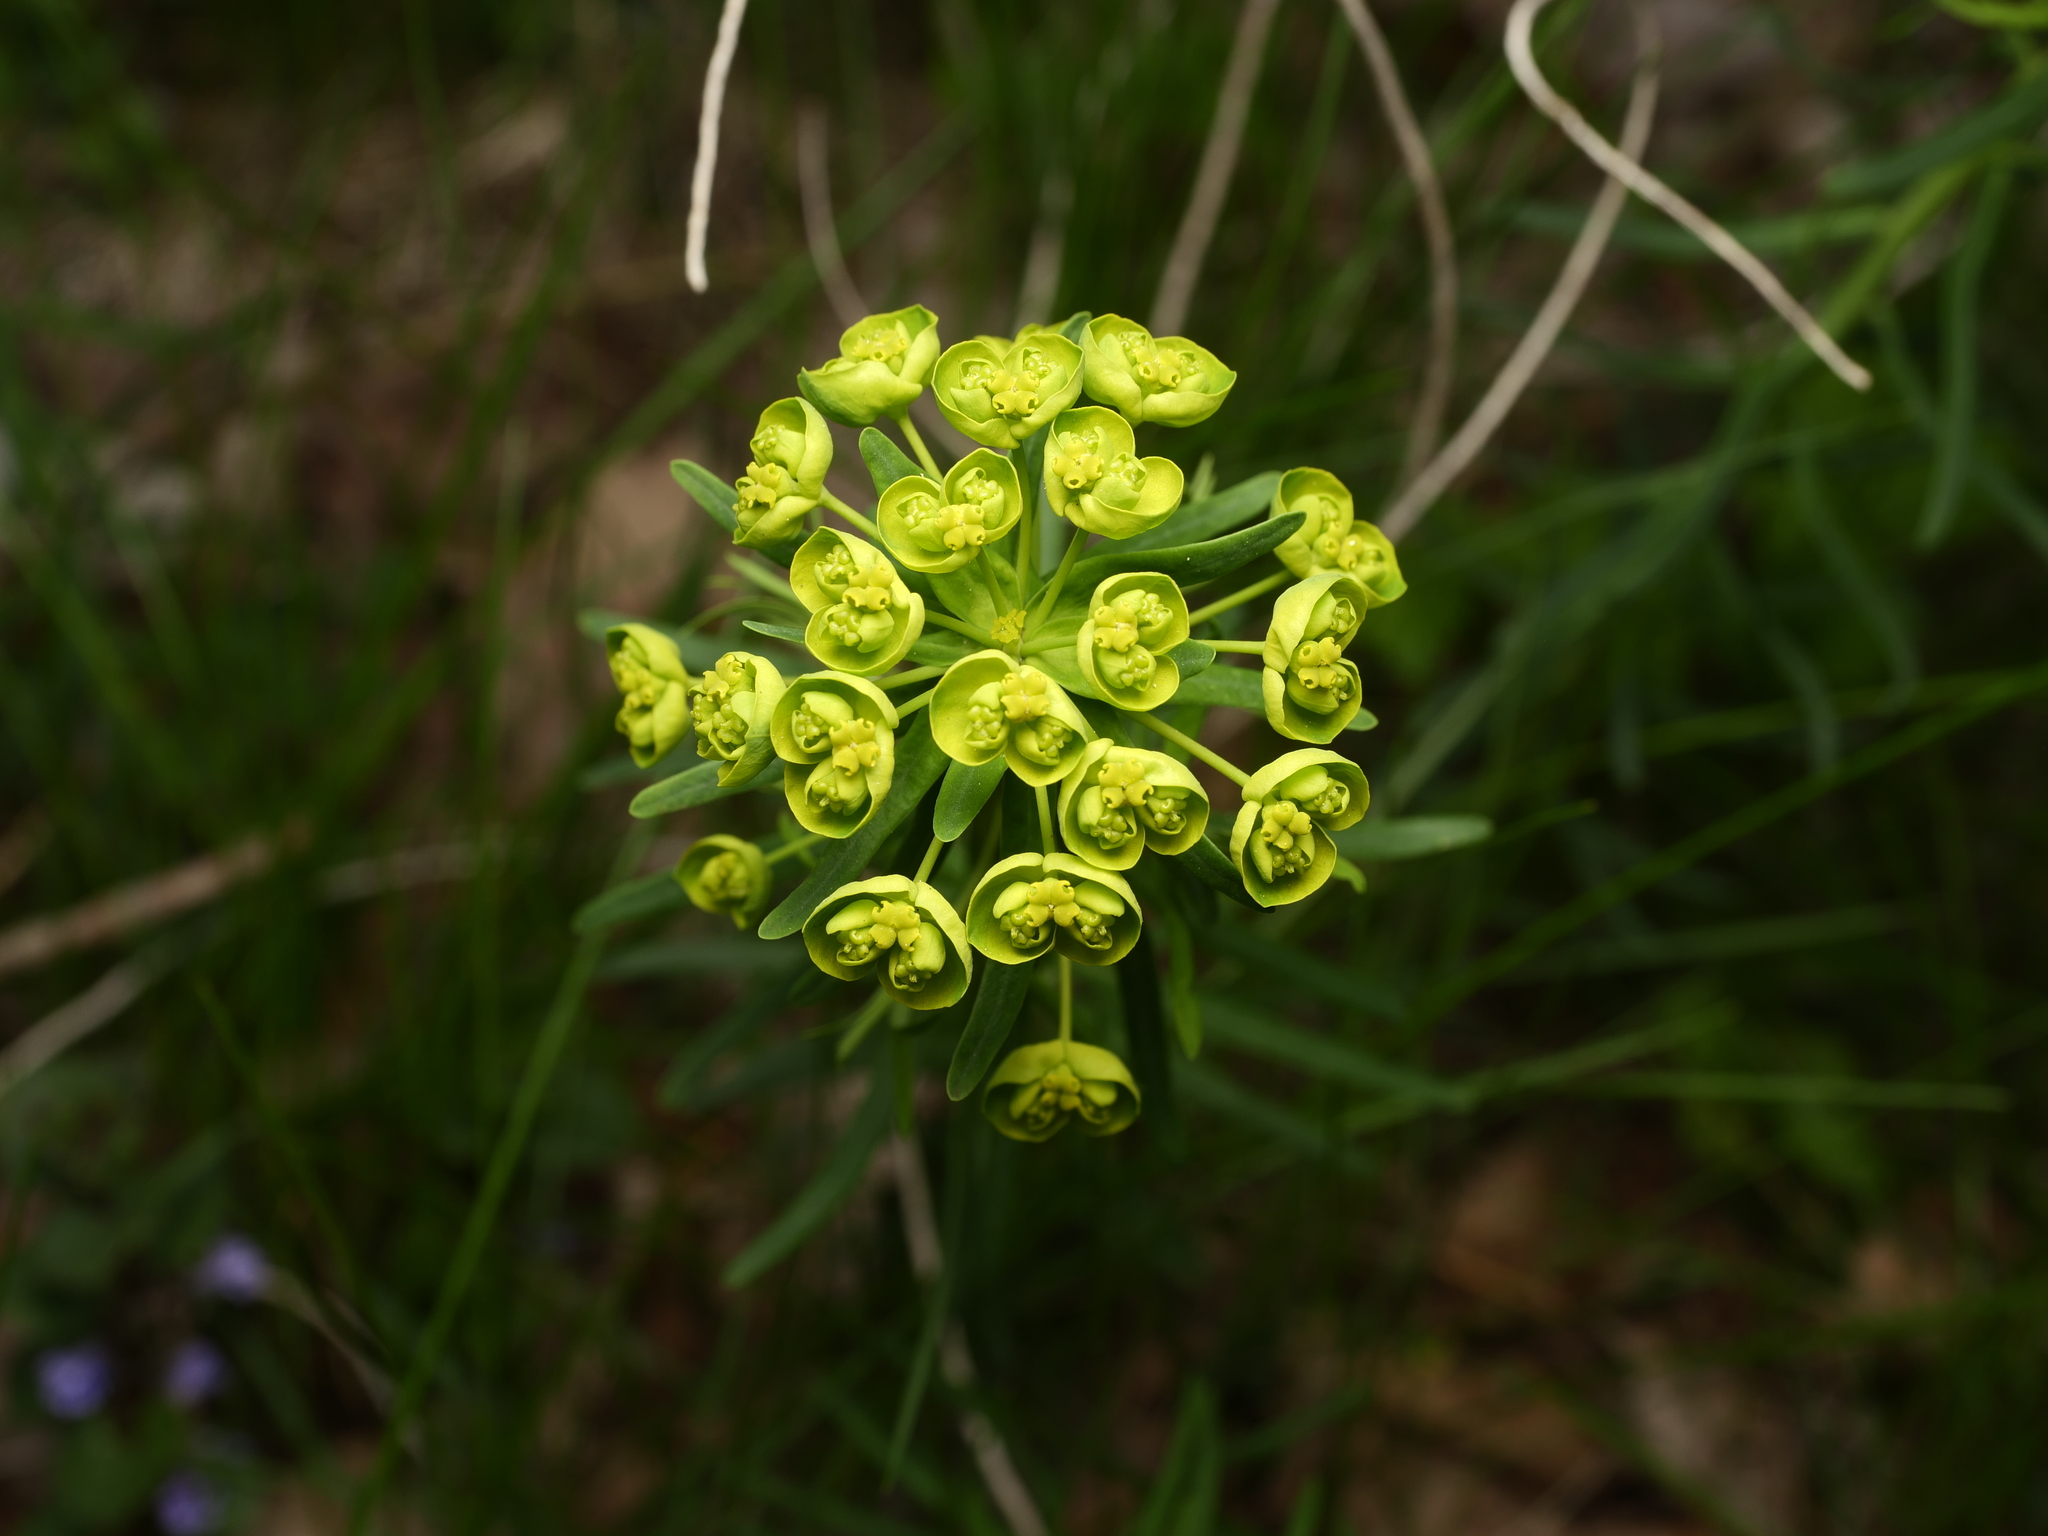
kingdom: Plantae
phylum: Tracheophyta
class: Magnoliopsida
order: Malpighiales
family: Euphorbiaceae
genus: Euphorbia
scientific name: Euphorbia cyparissias
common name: Cypress spurge
